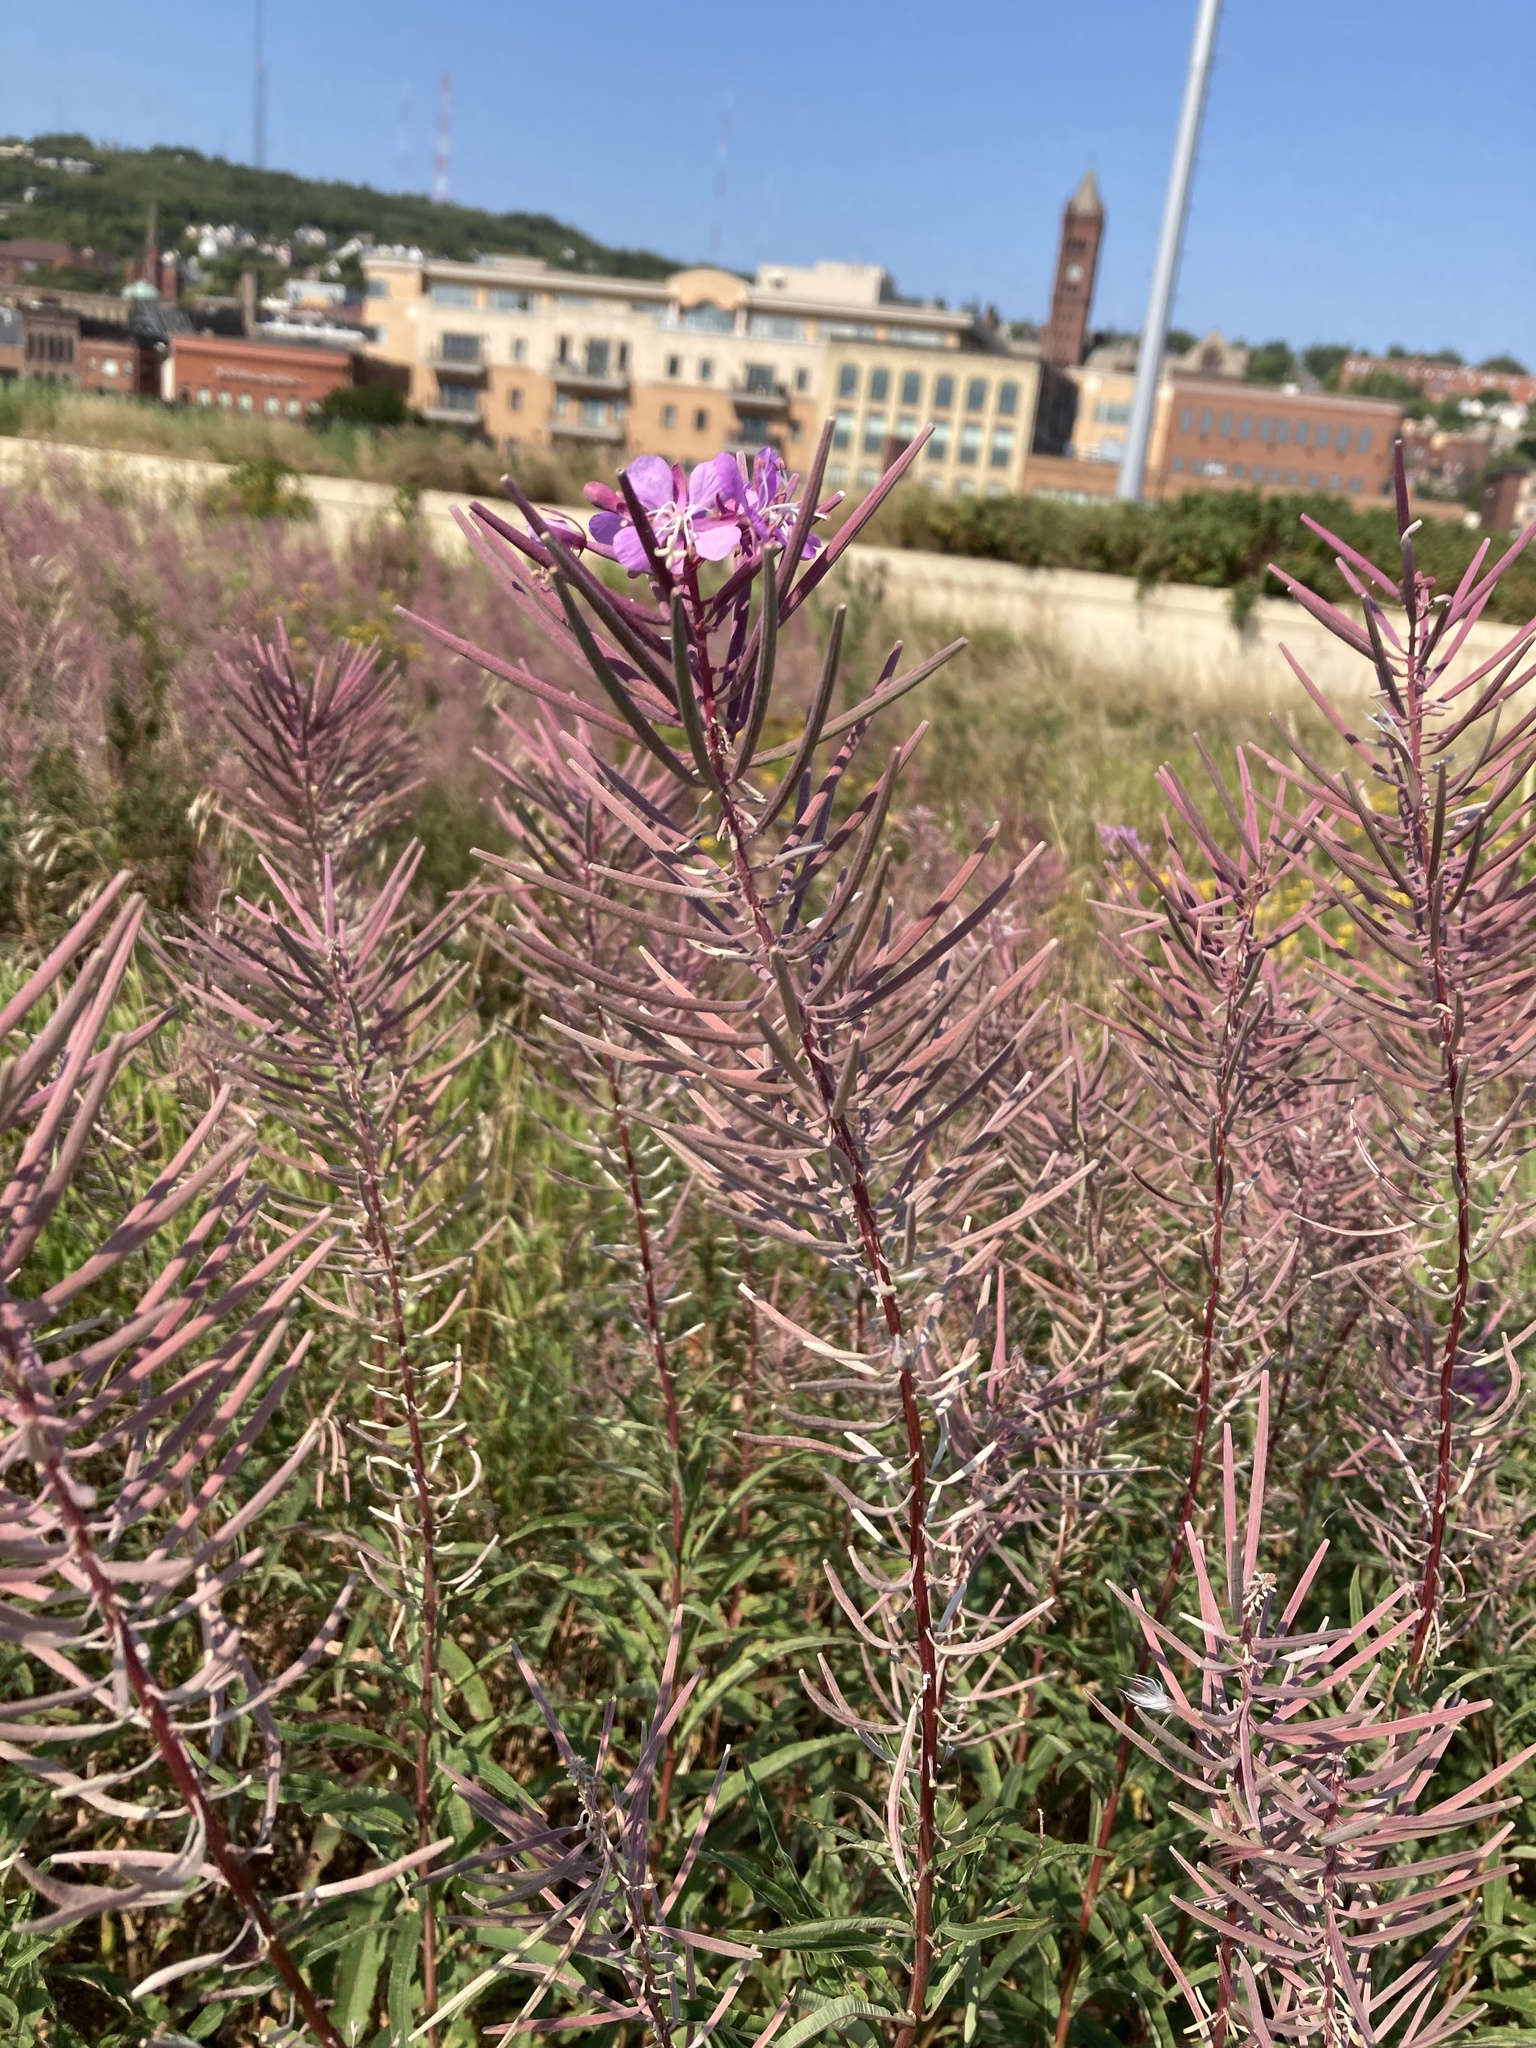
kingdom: Plantae
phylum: Tracheophyta
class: Magnoliopsida
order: Myrtales
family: Onagraceae
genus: Chamaenerion
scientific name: Chamaenerion angustifolium
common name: Fireweed
